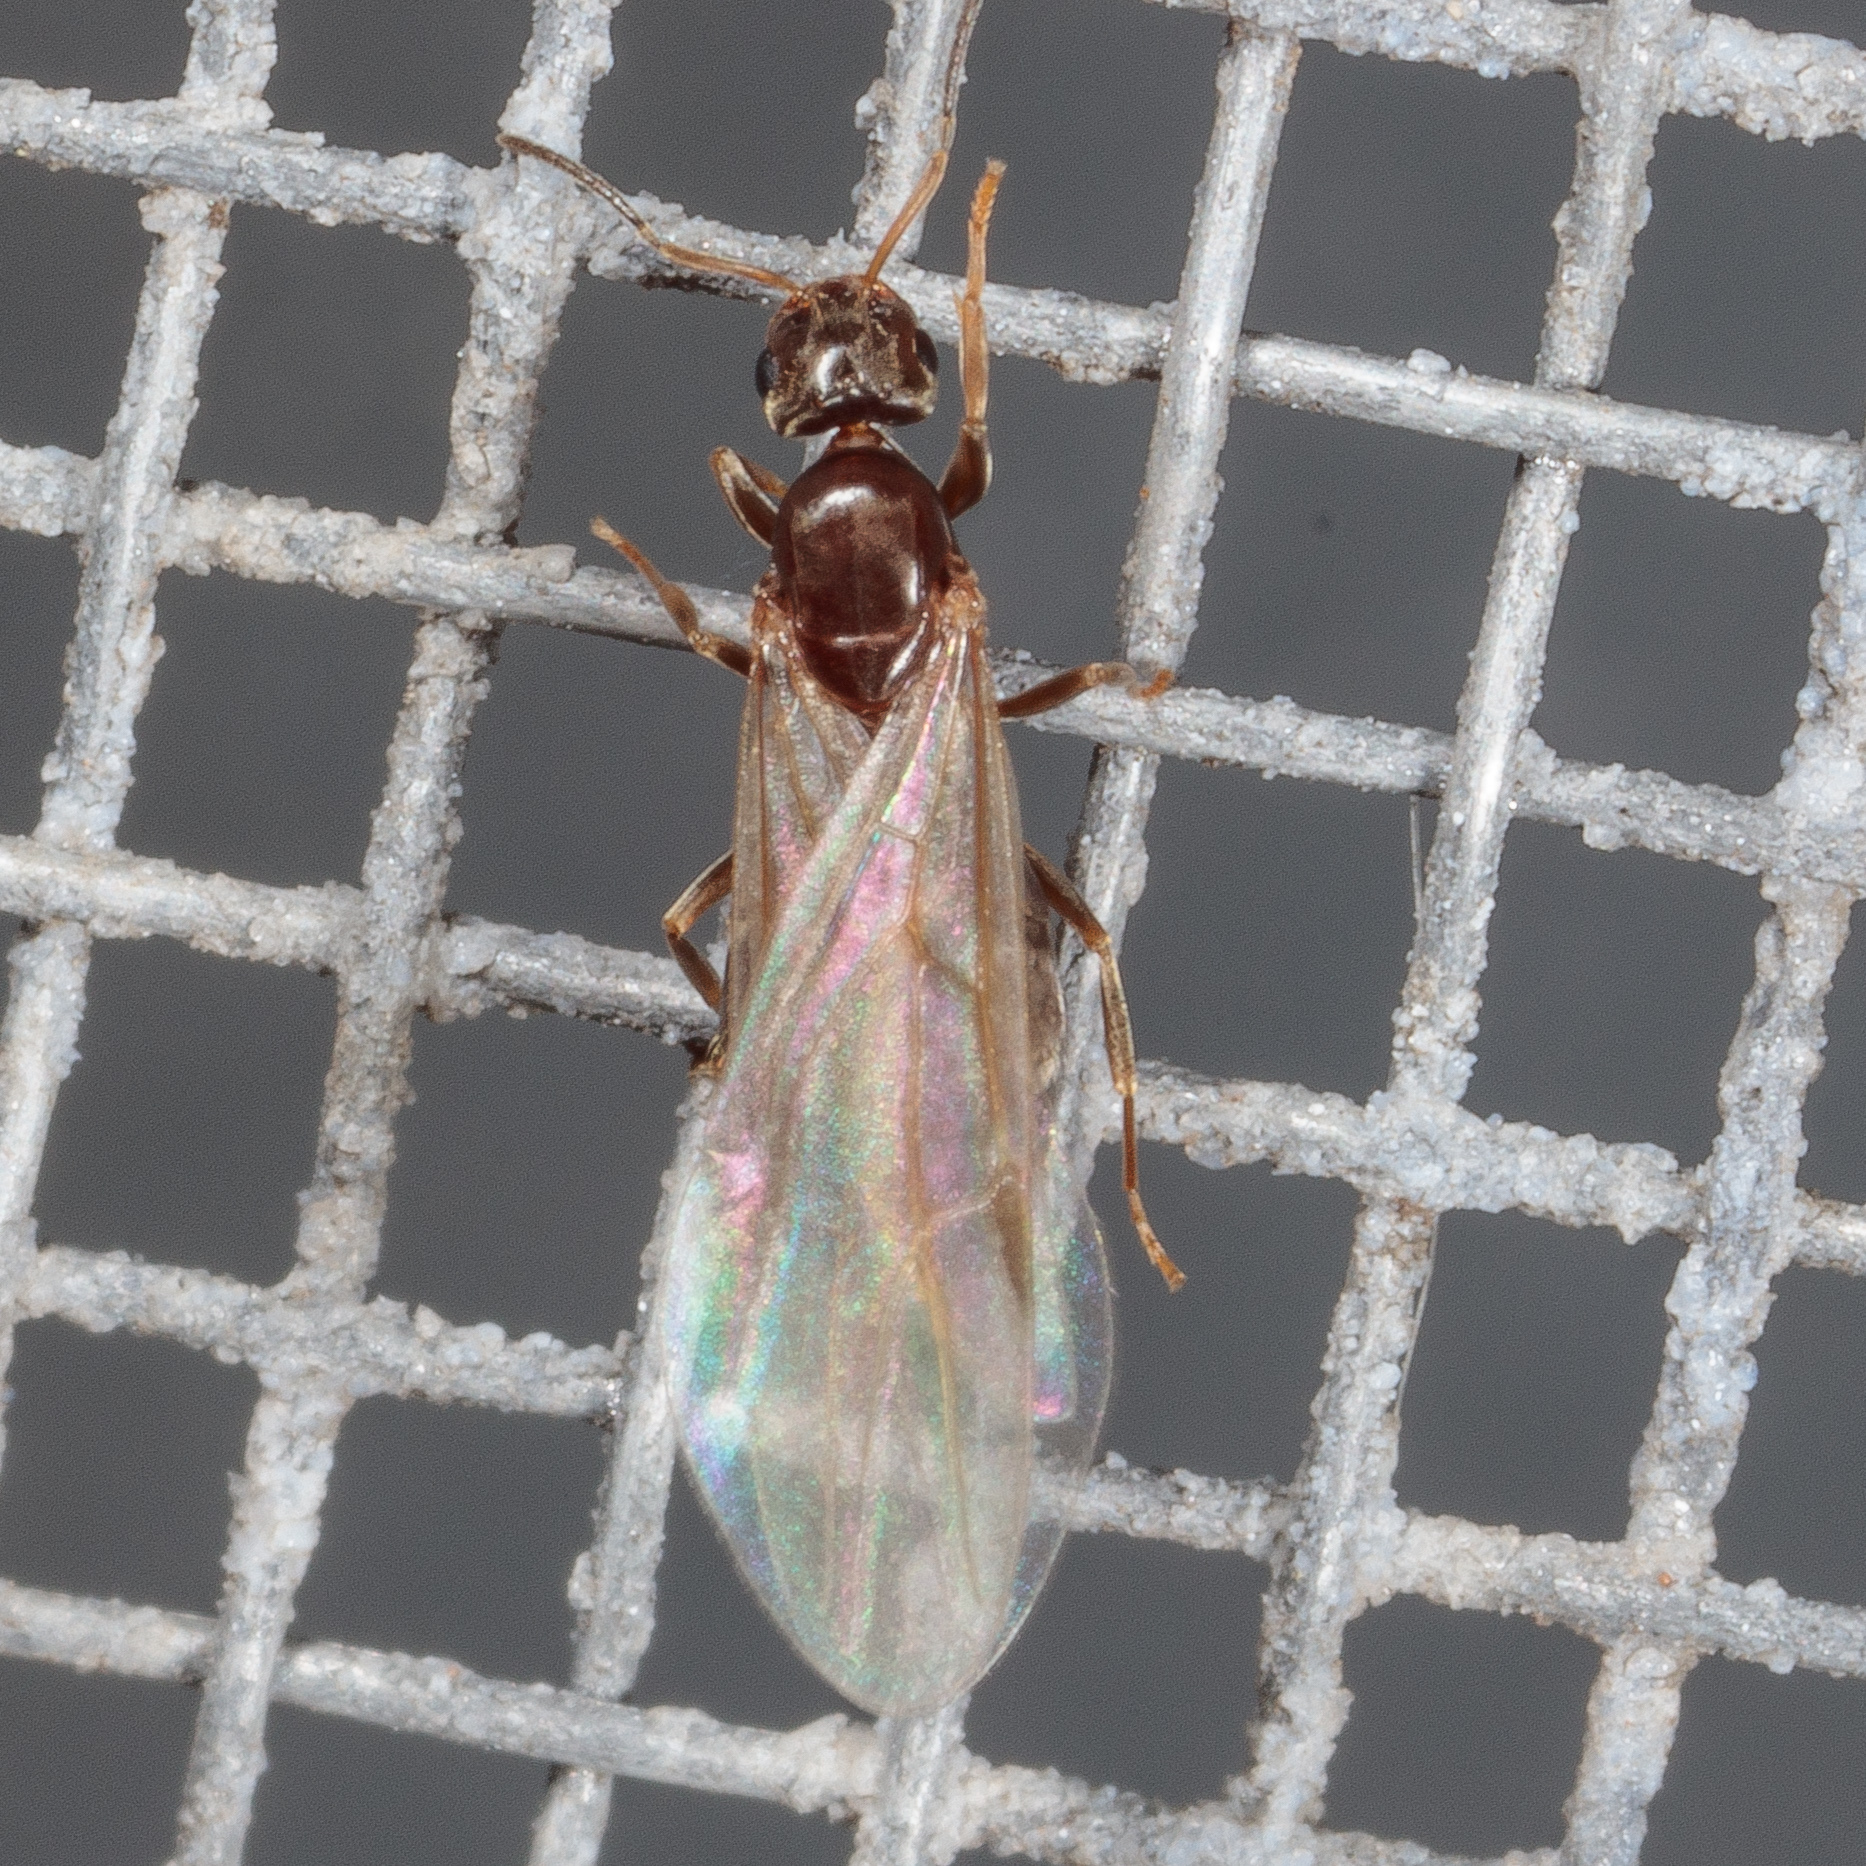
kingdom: Animalia
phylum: Arthropoda
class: Insecta
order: Hymenoptera
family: Formicidae
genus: Brachymyrmex
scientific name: Brachymyrmex patagonicus
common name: Dark rover ant
